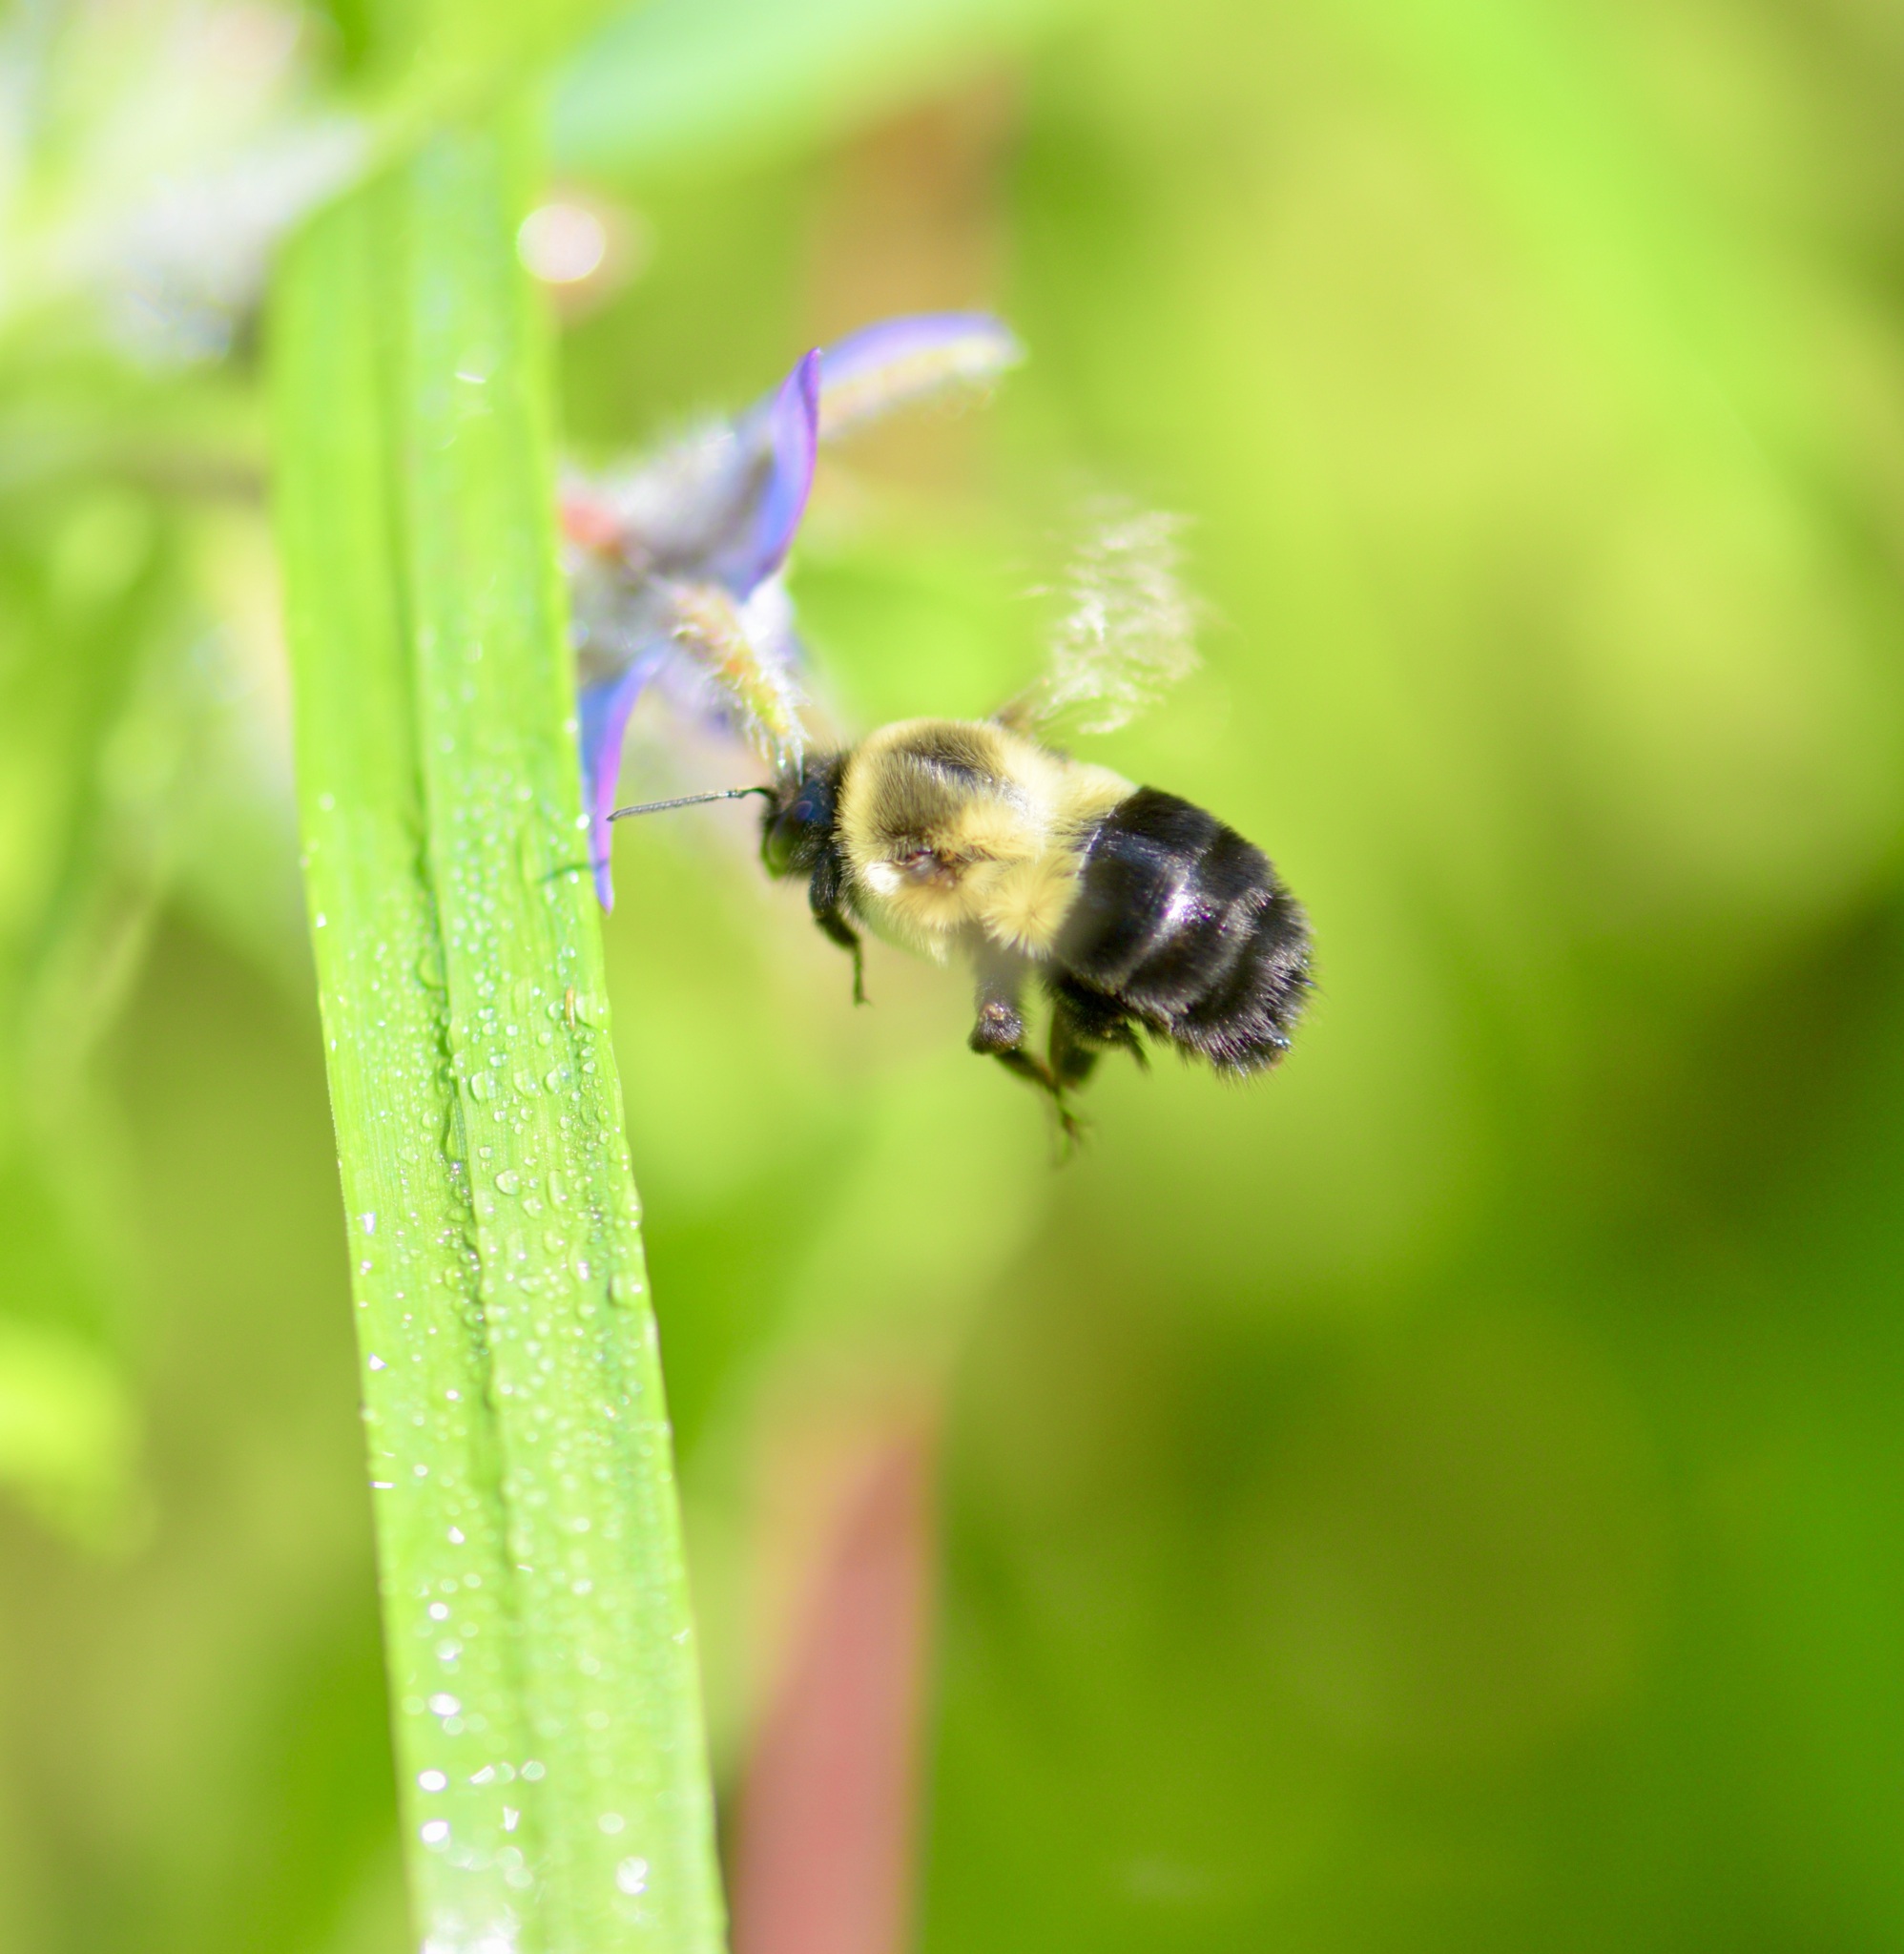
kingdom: Animalia
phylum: Arthropoda
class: Insecta
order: Hymenoptera
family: Apidae
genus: Bombus
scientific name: Bombus impatiens
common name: Common eastern bumble bee
